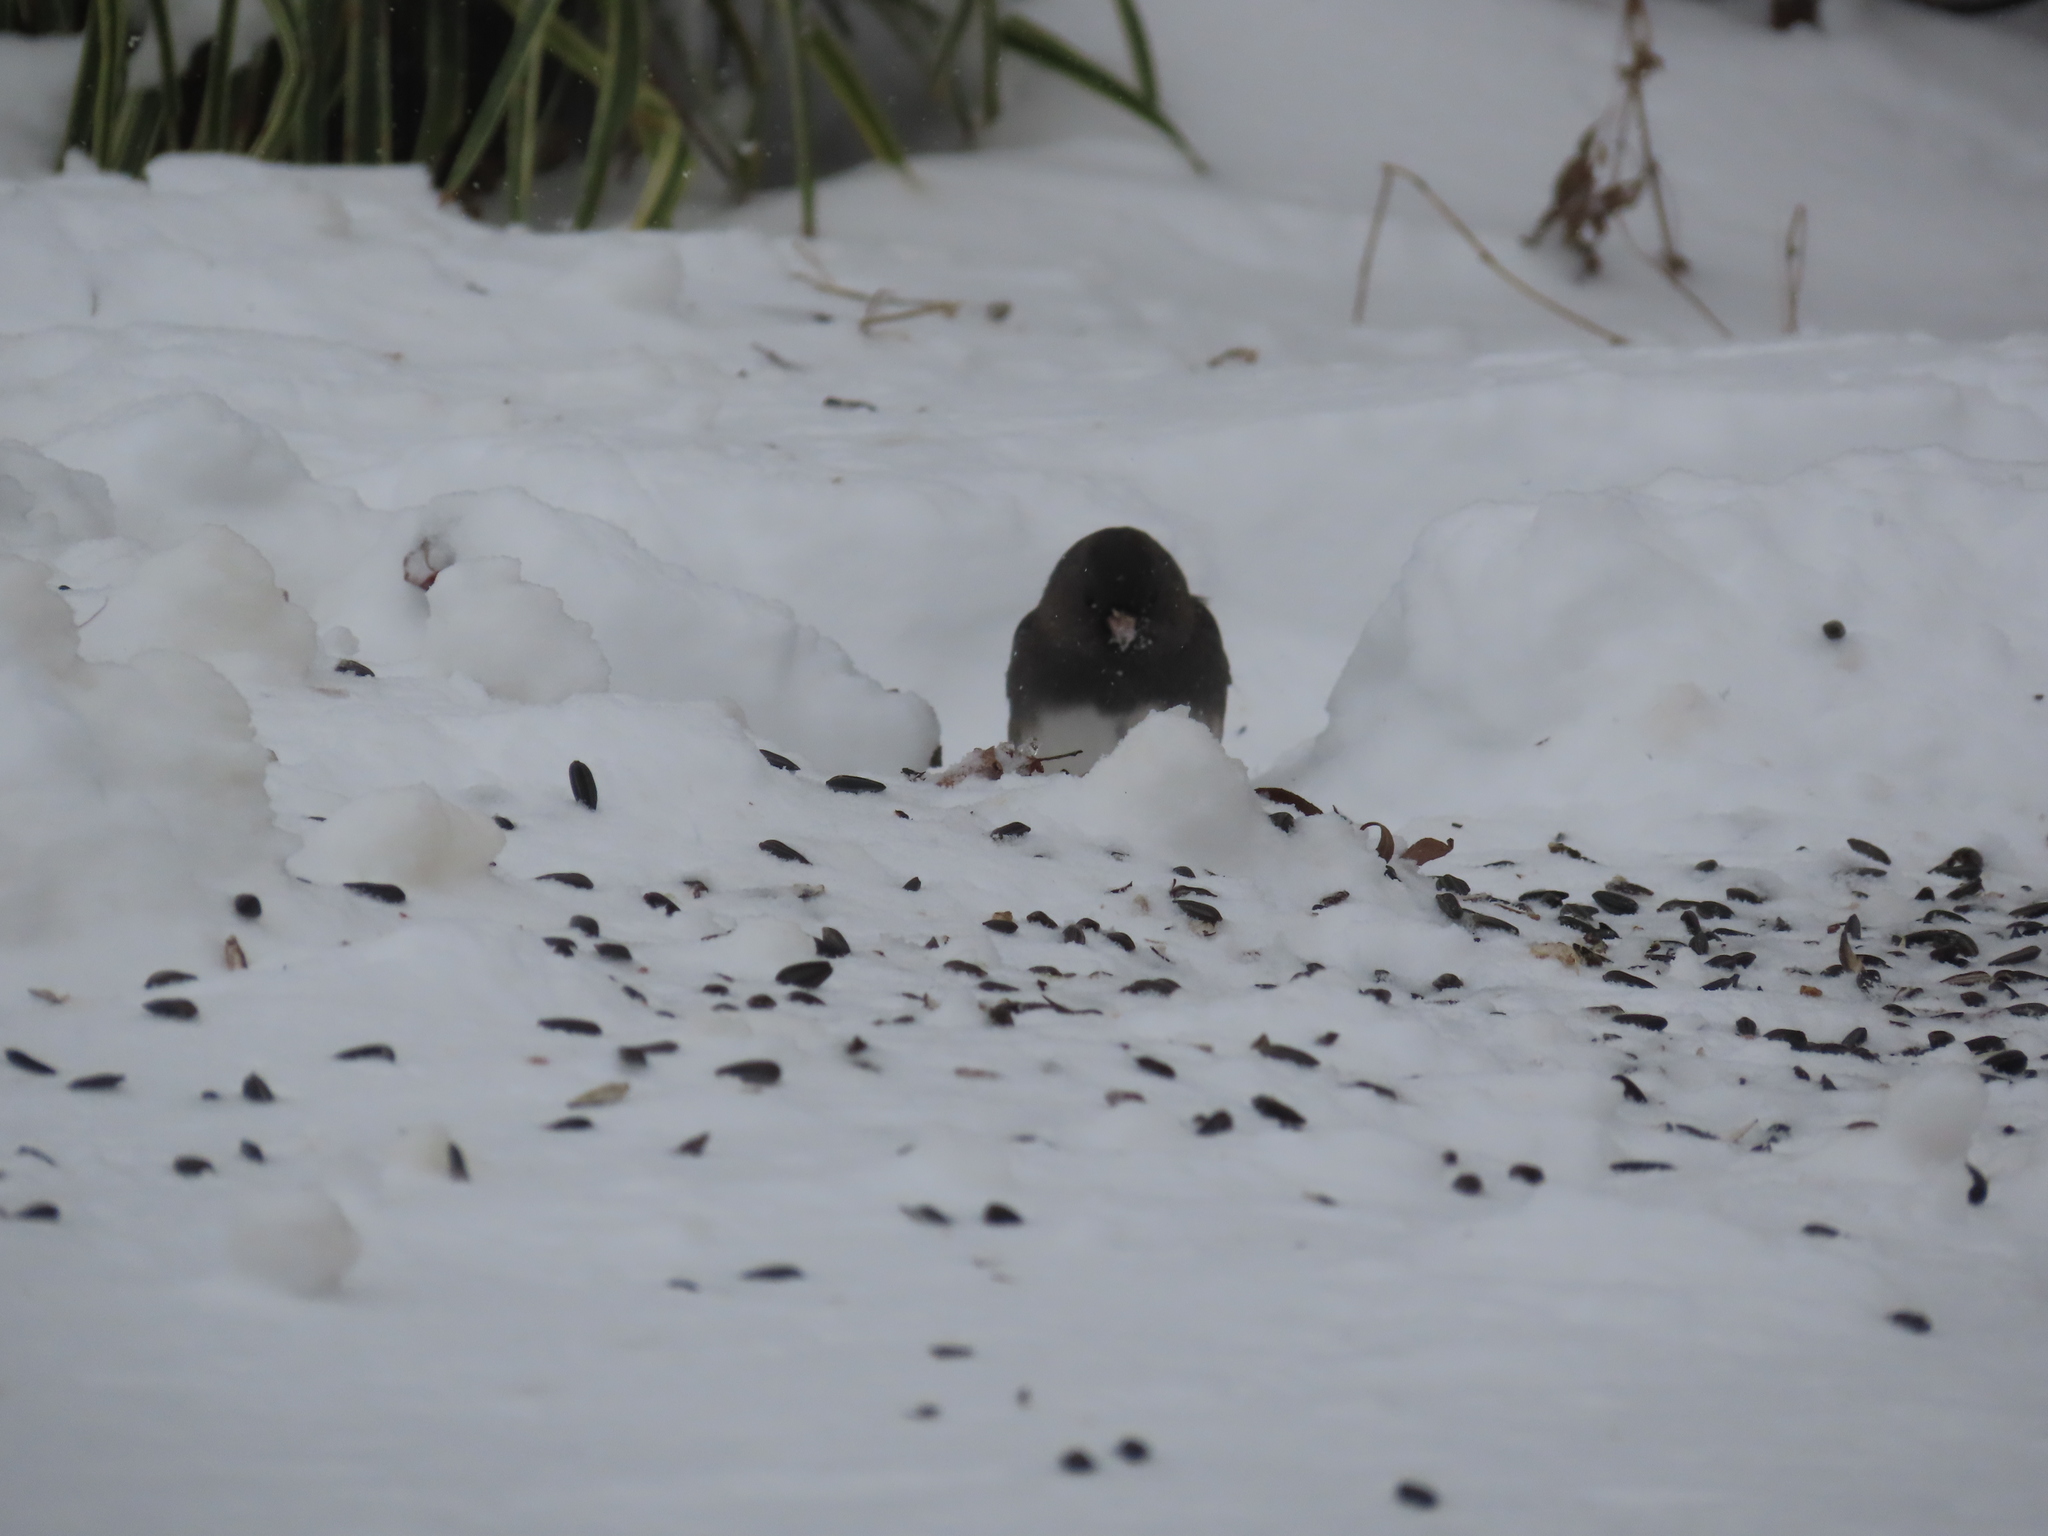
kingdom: Animalia
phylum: Chordata
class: Aves
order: Passeriformes
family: Passerellidae
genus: Junco
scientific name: Junco hyemalis
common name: Dark-eyed junco
